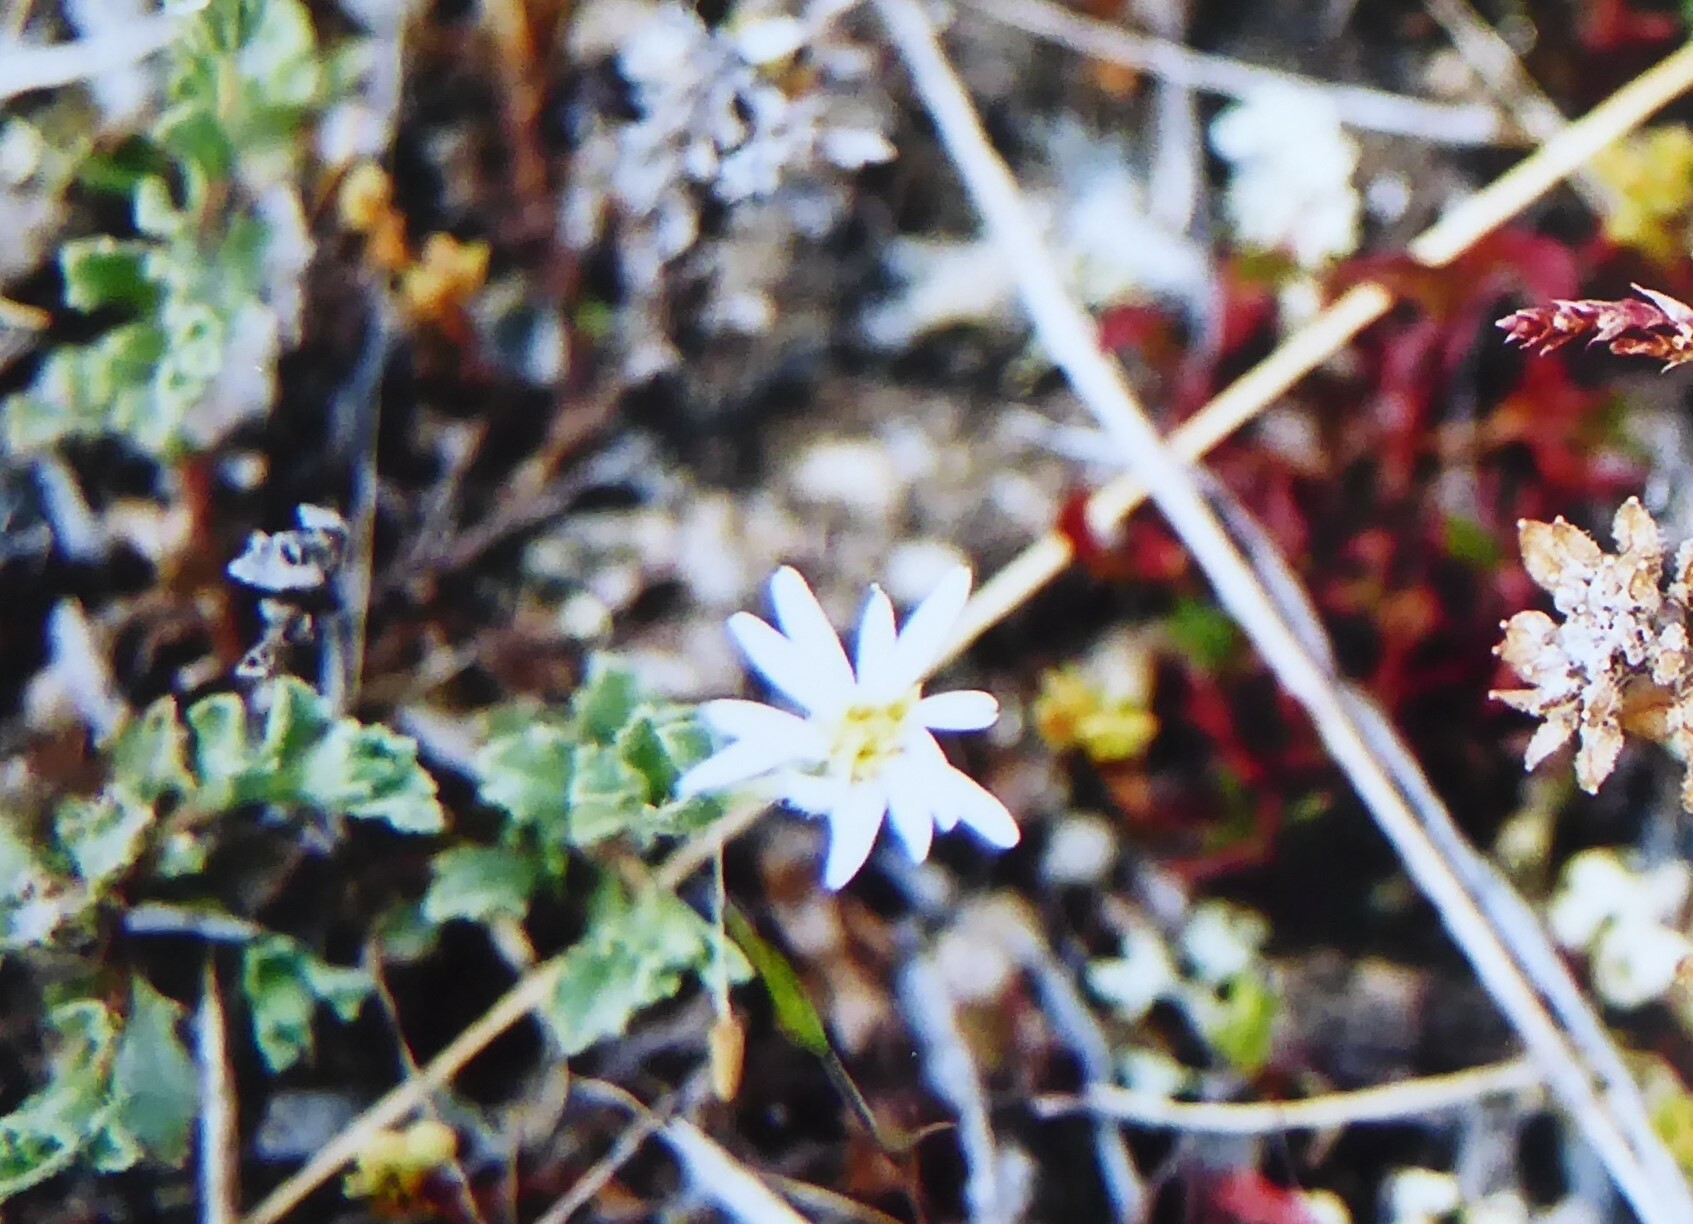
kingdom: Plantae
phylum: Tracheophyta
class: Magnoliopsida
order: Asterales
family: Asteraceae
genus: Vittadinia
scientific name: Vittadinia australis
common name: White fuzzweed
